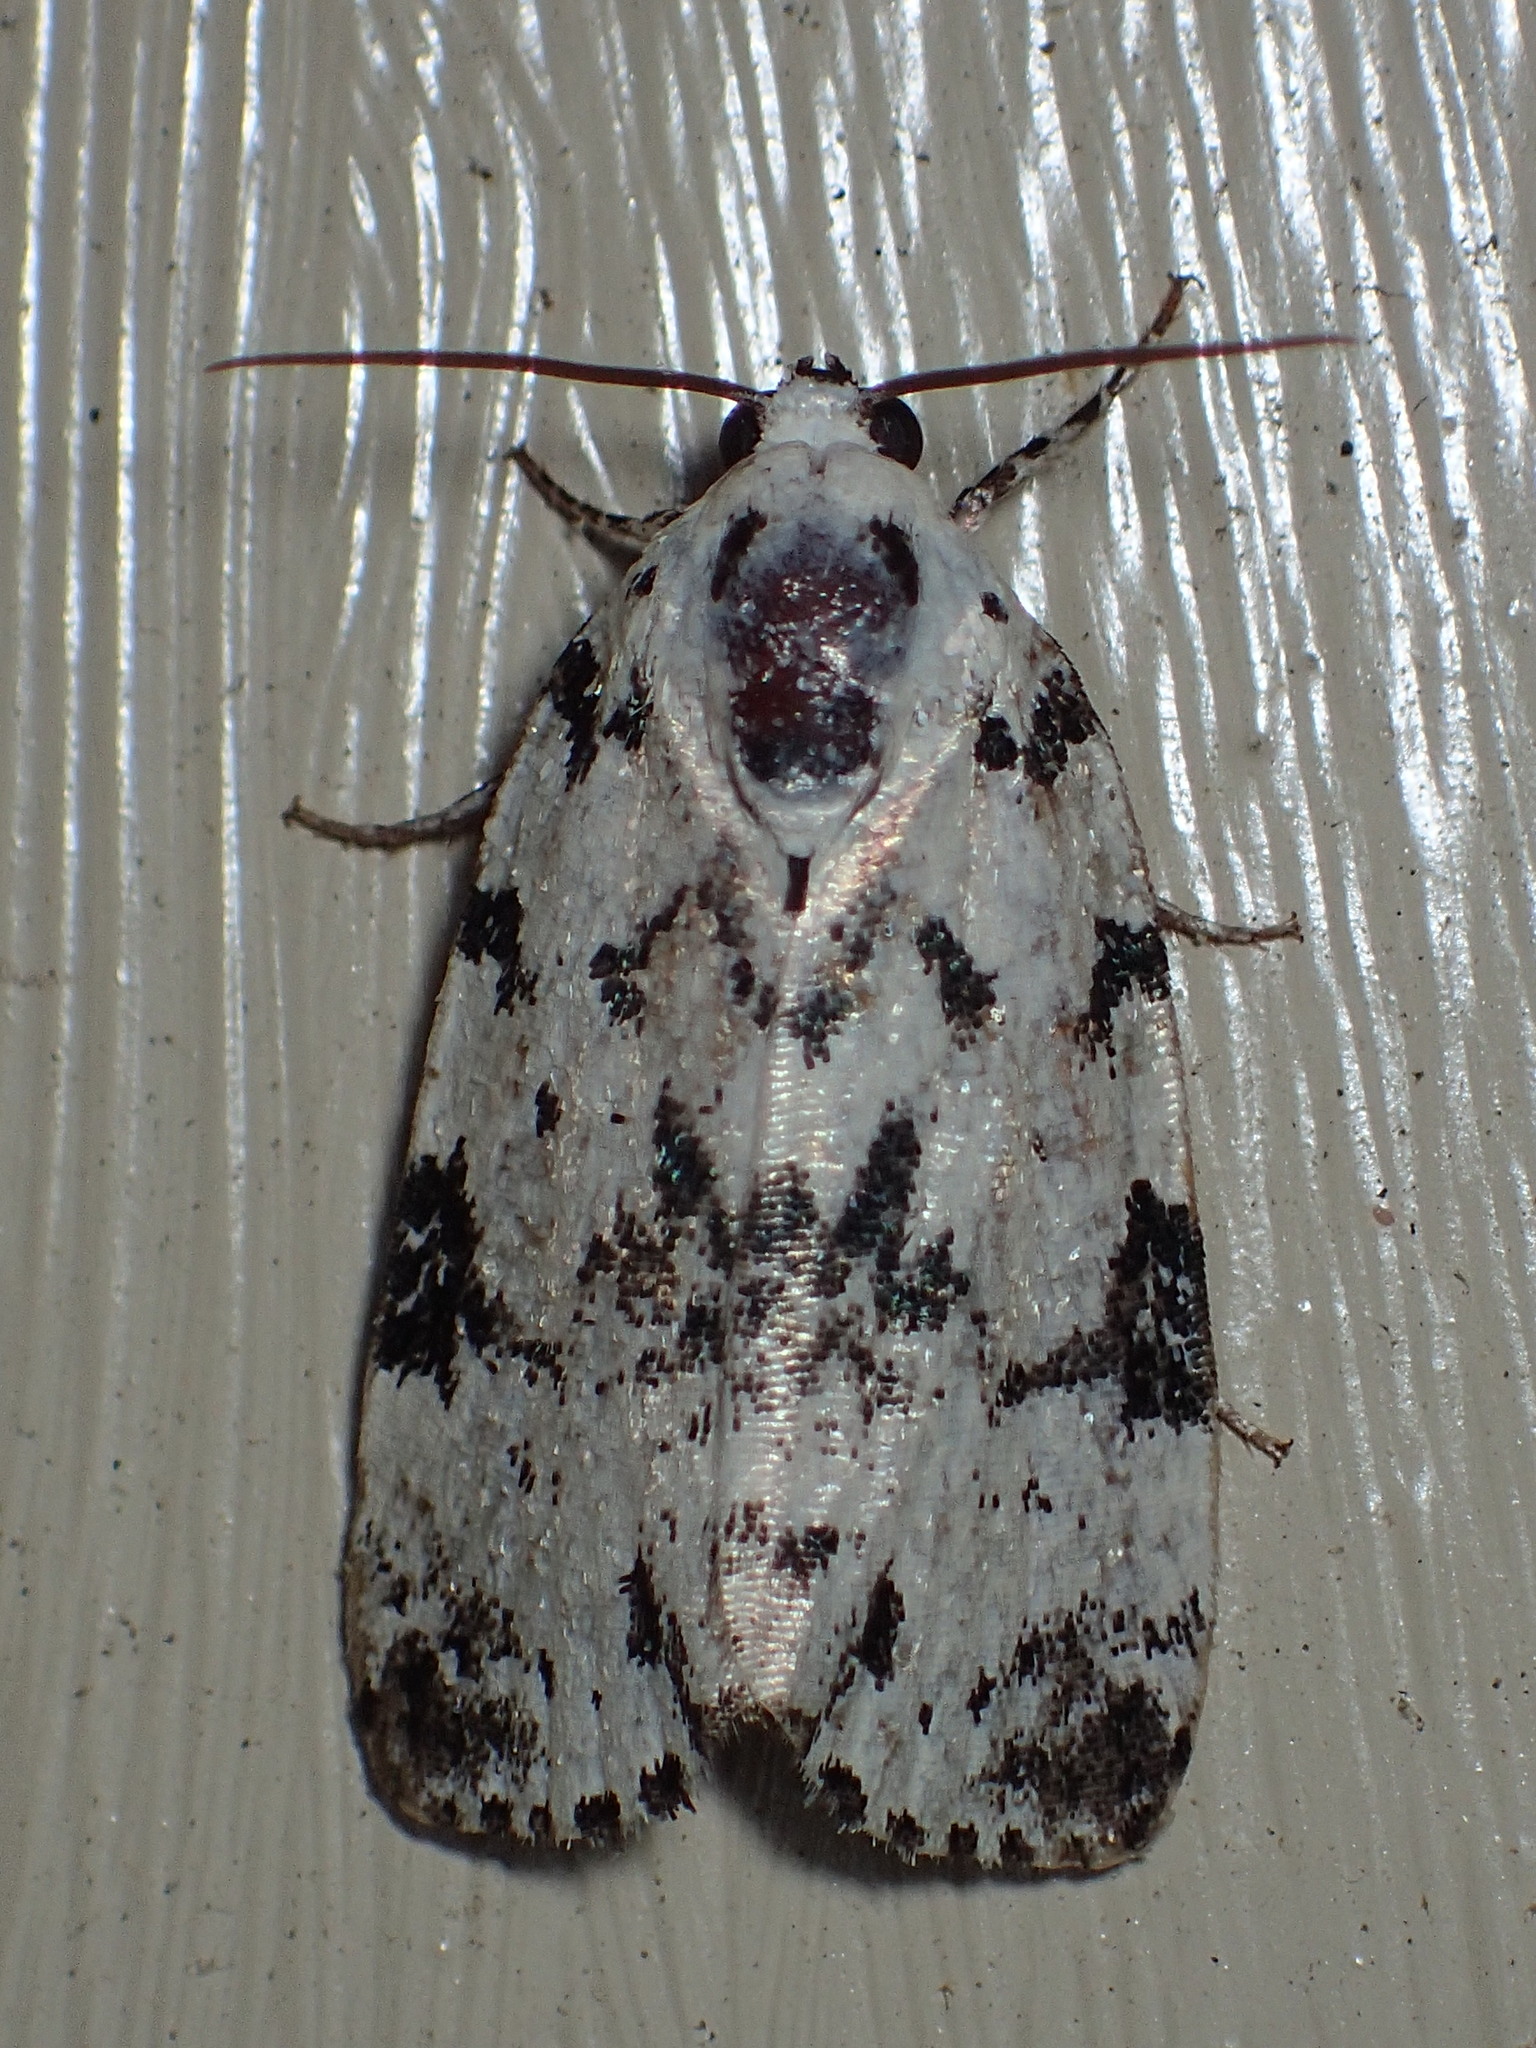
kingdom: Animalia
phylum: Arthropoda
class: Insecta
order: Lepidoptera
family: Noctuidae
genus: Polygrammate
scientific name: Polygrammate hebraeicum
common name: Hebrew moth
